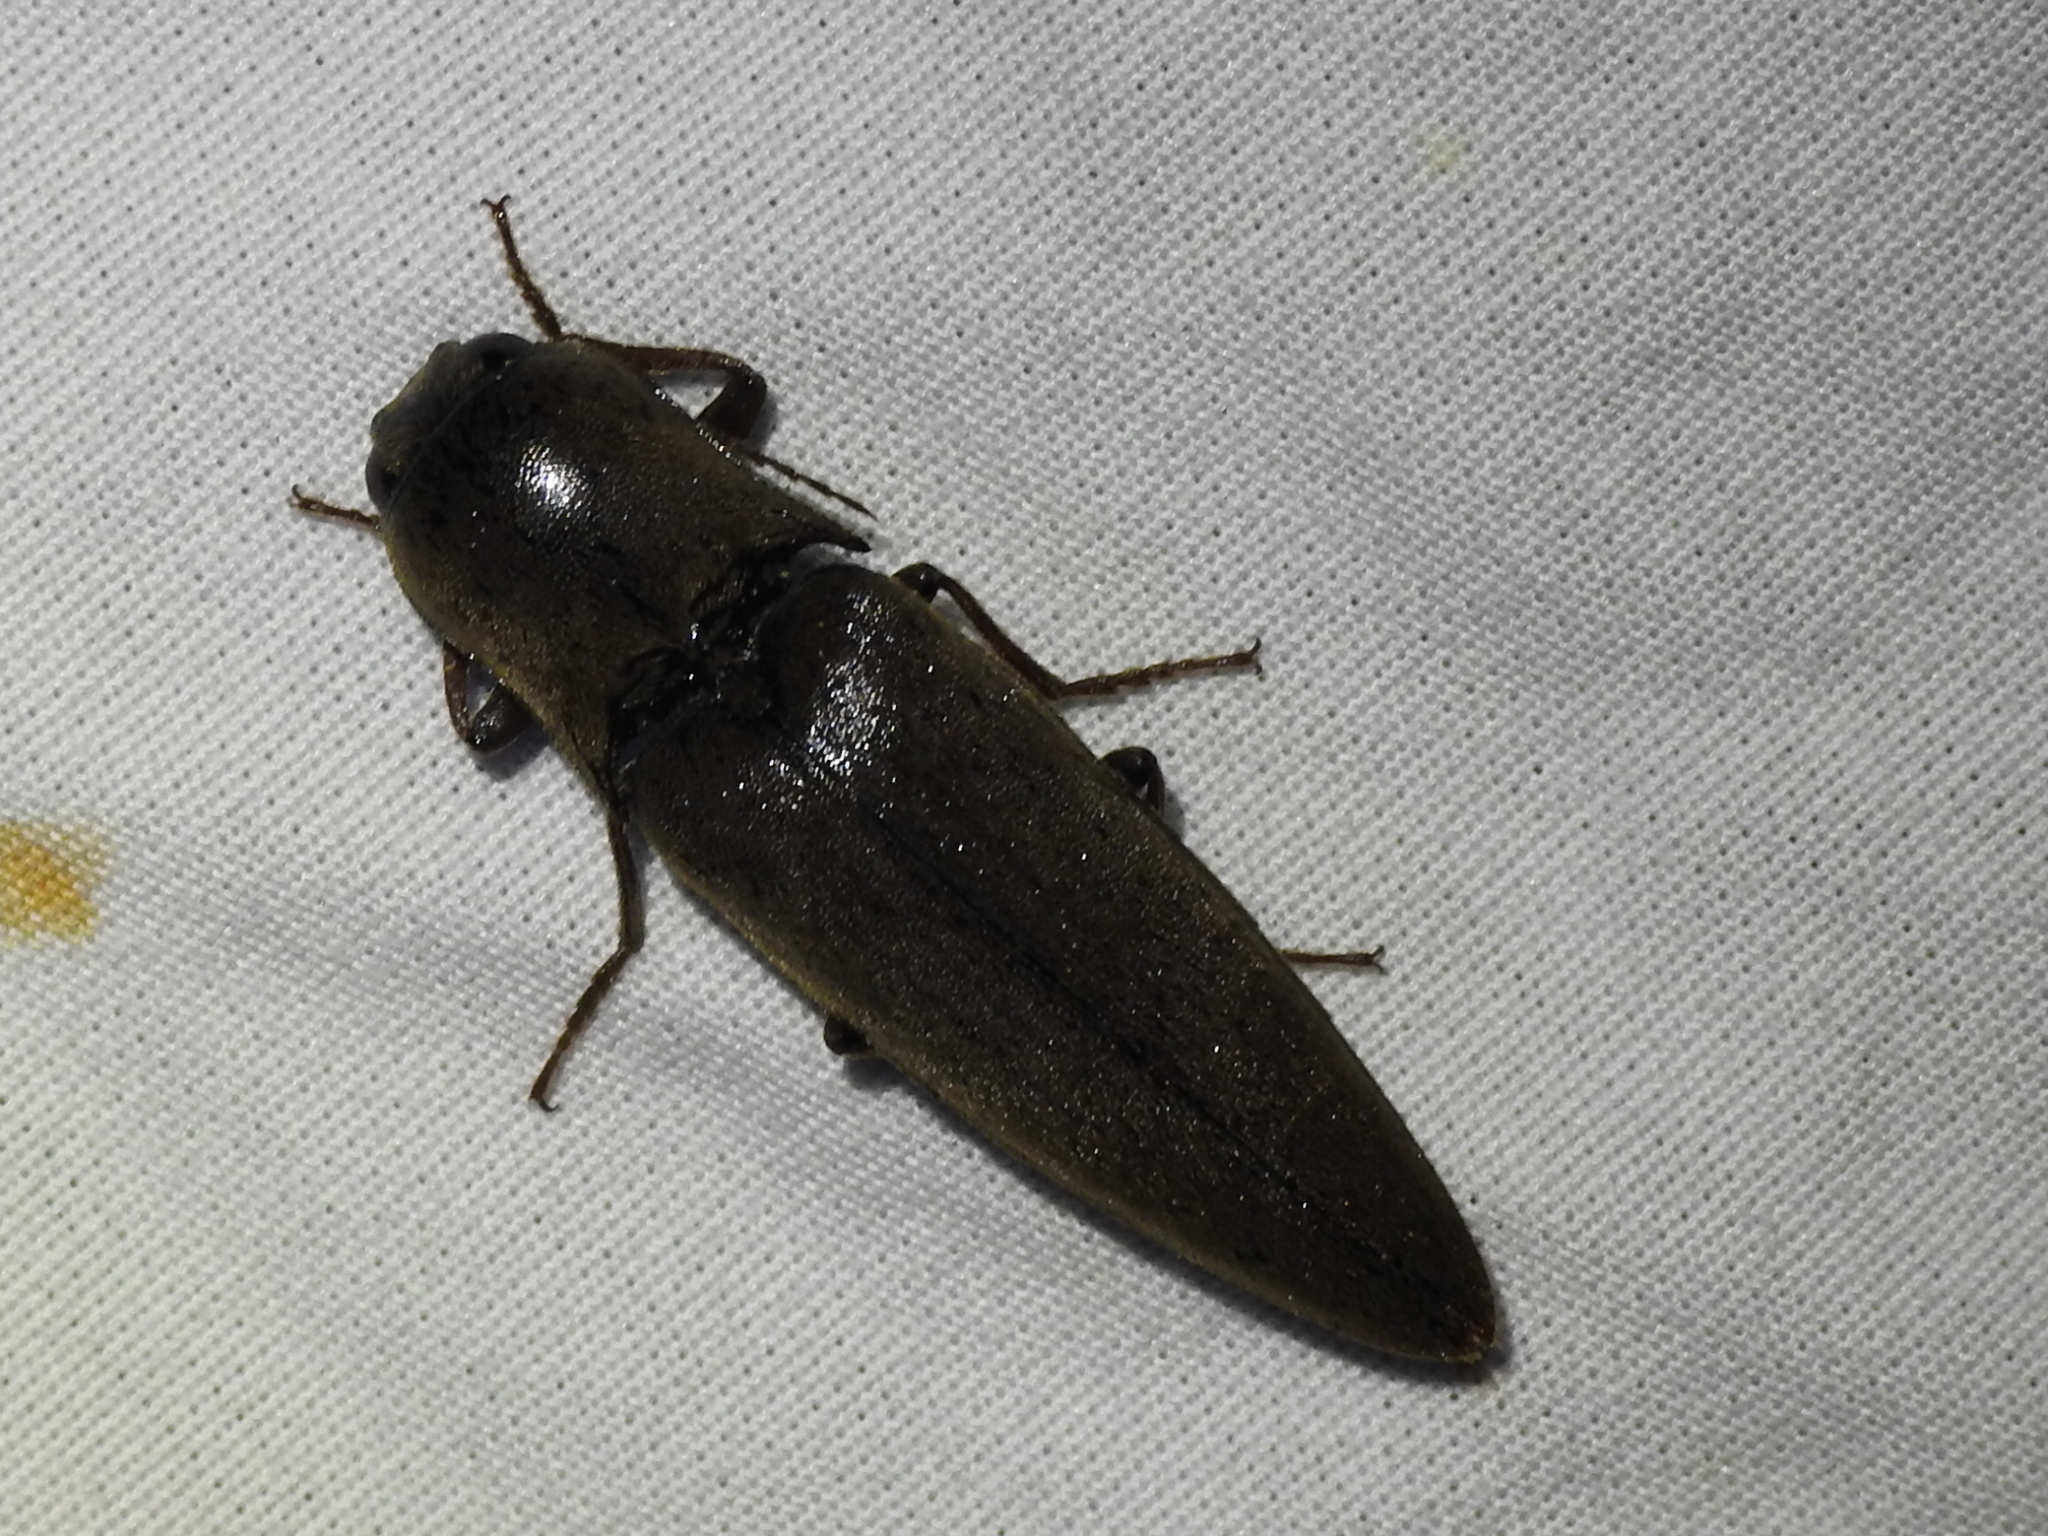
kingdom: Animalia
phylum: Arthropoda
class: Insecta
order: Coleoptera
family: Elateridae
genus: Orthostethus
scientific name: Orthostethus infuscatus
